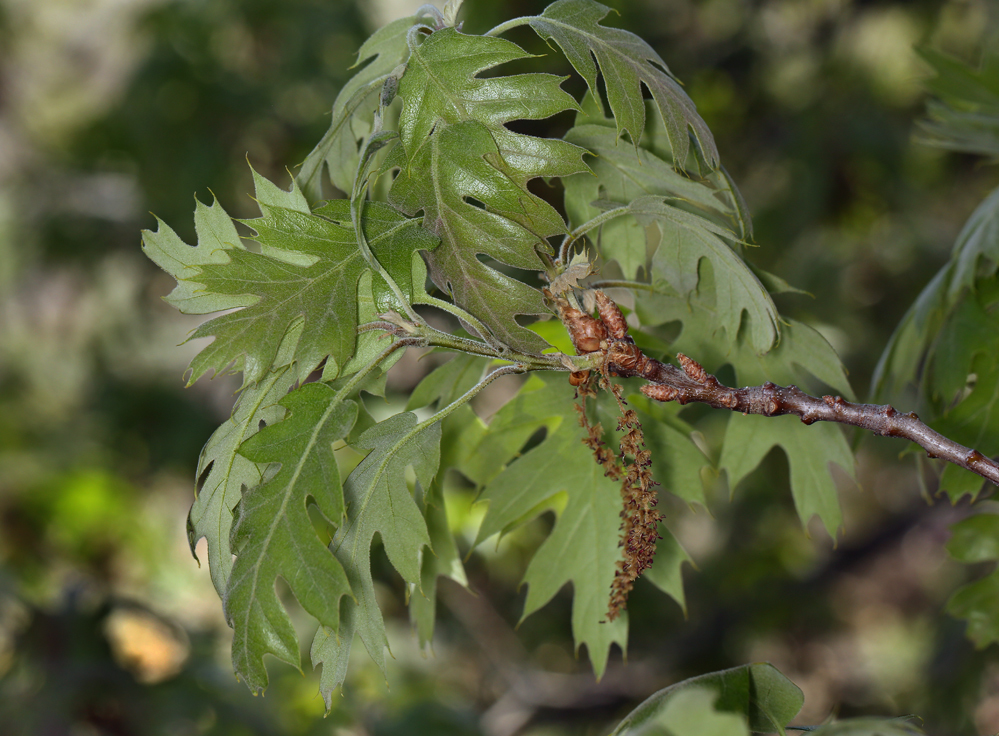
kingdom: Plantae
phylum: Tracheophyta
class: Magnoliopsida
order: Fagales
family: Fagaceae
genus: Quercus
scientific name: Quercus kelloggii
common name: California black oak
